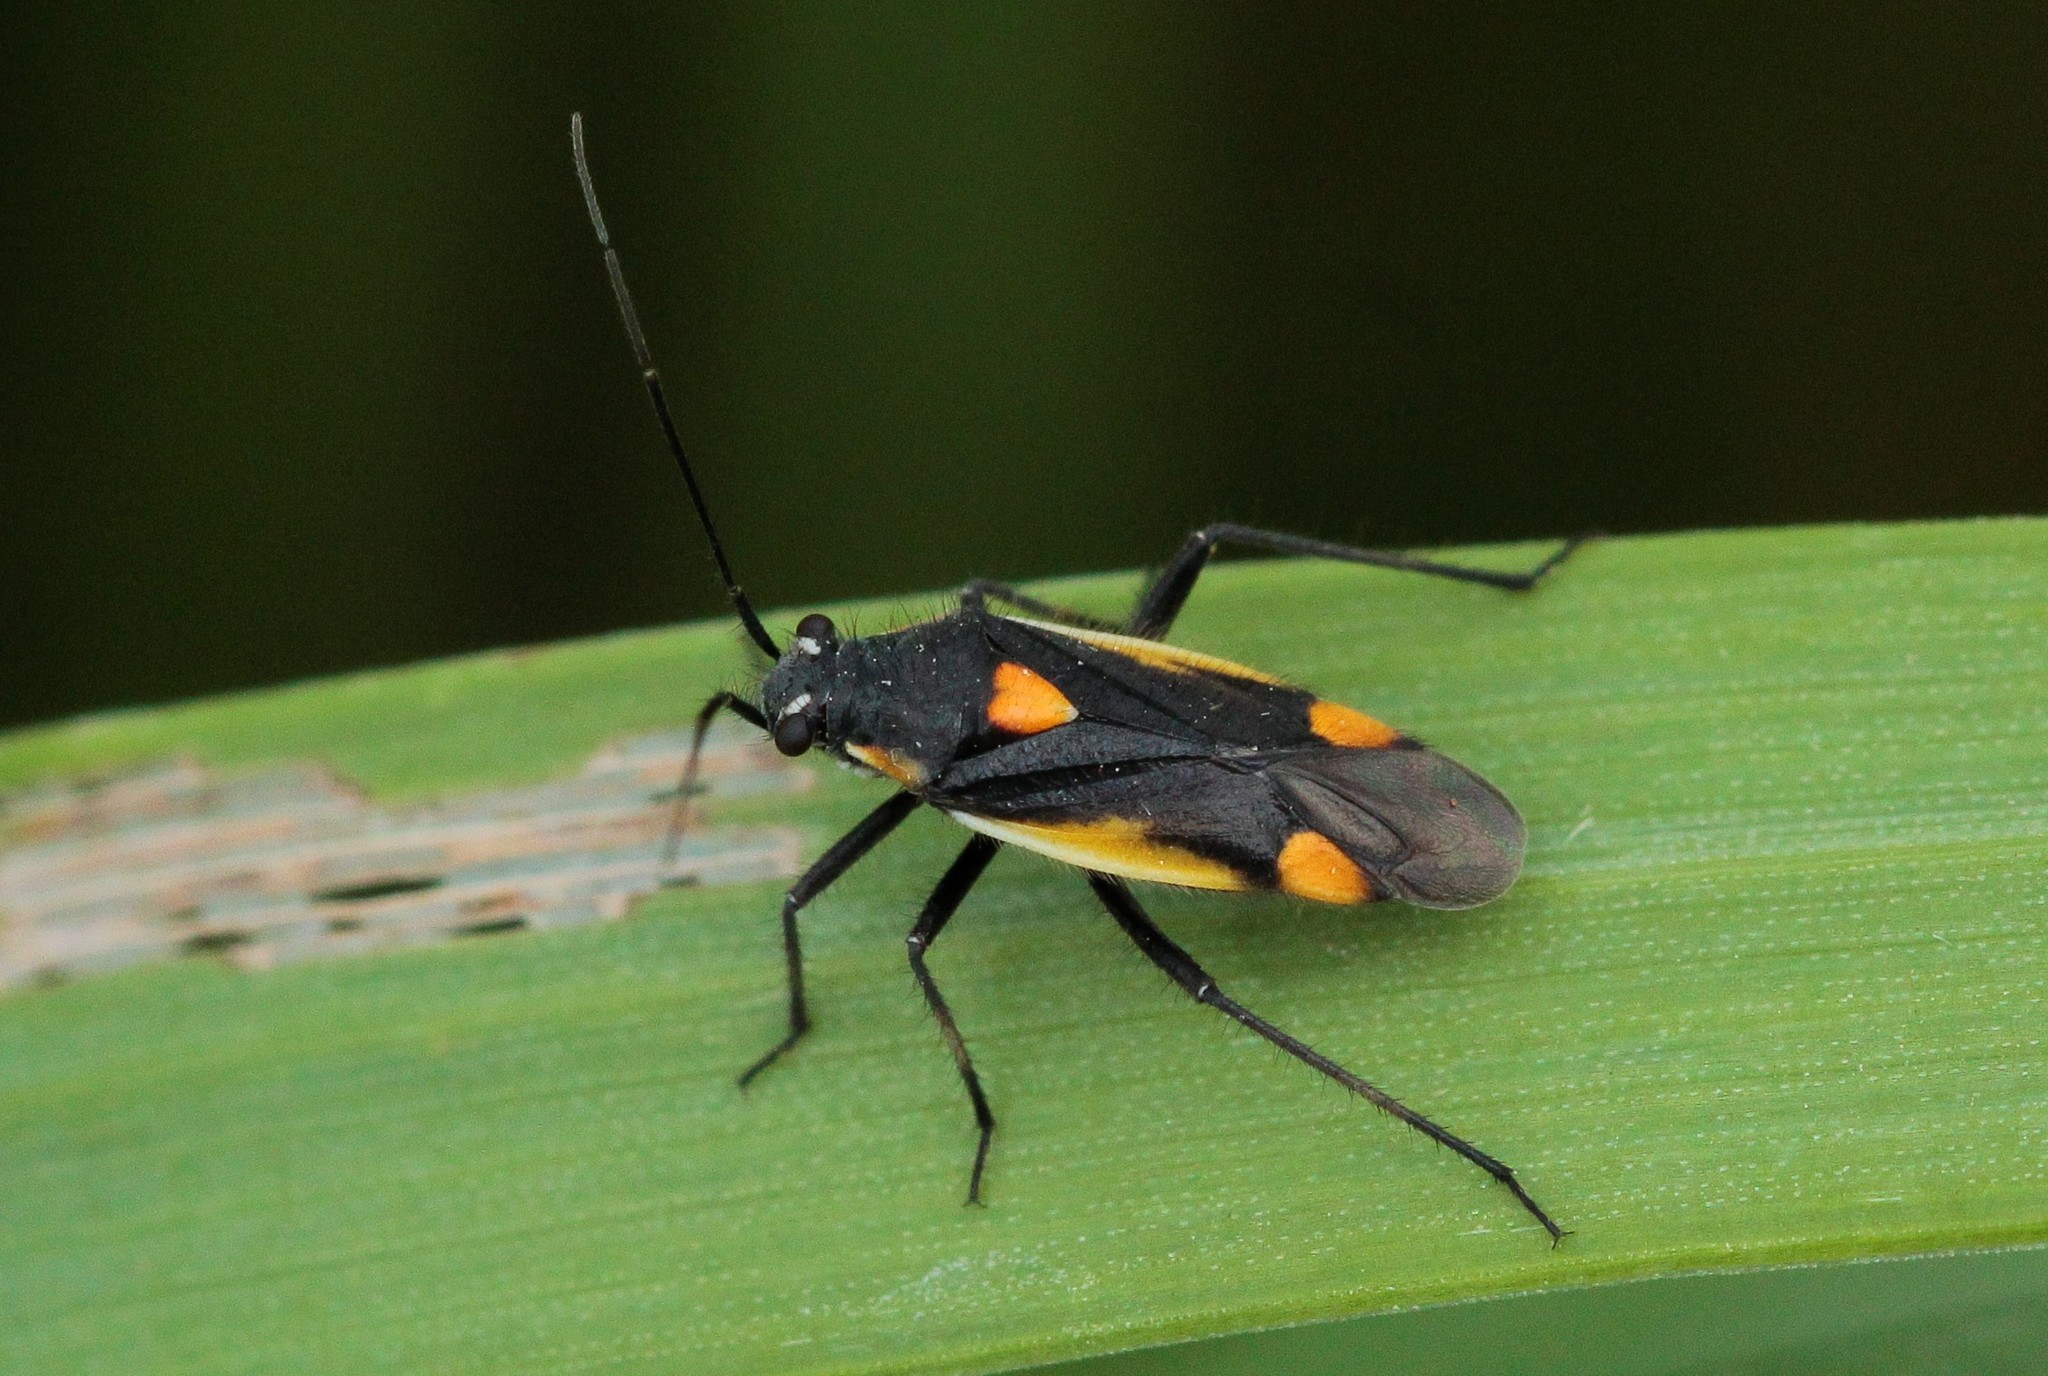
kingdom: Animalia
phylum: Arthropoda
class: Insecta
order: Hemiptera
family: Miridae
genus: Capsodes
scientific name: Capsodes gothicus
